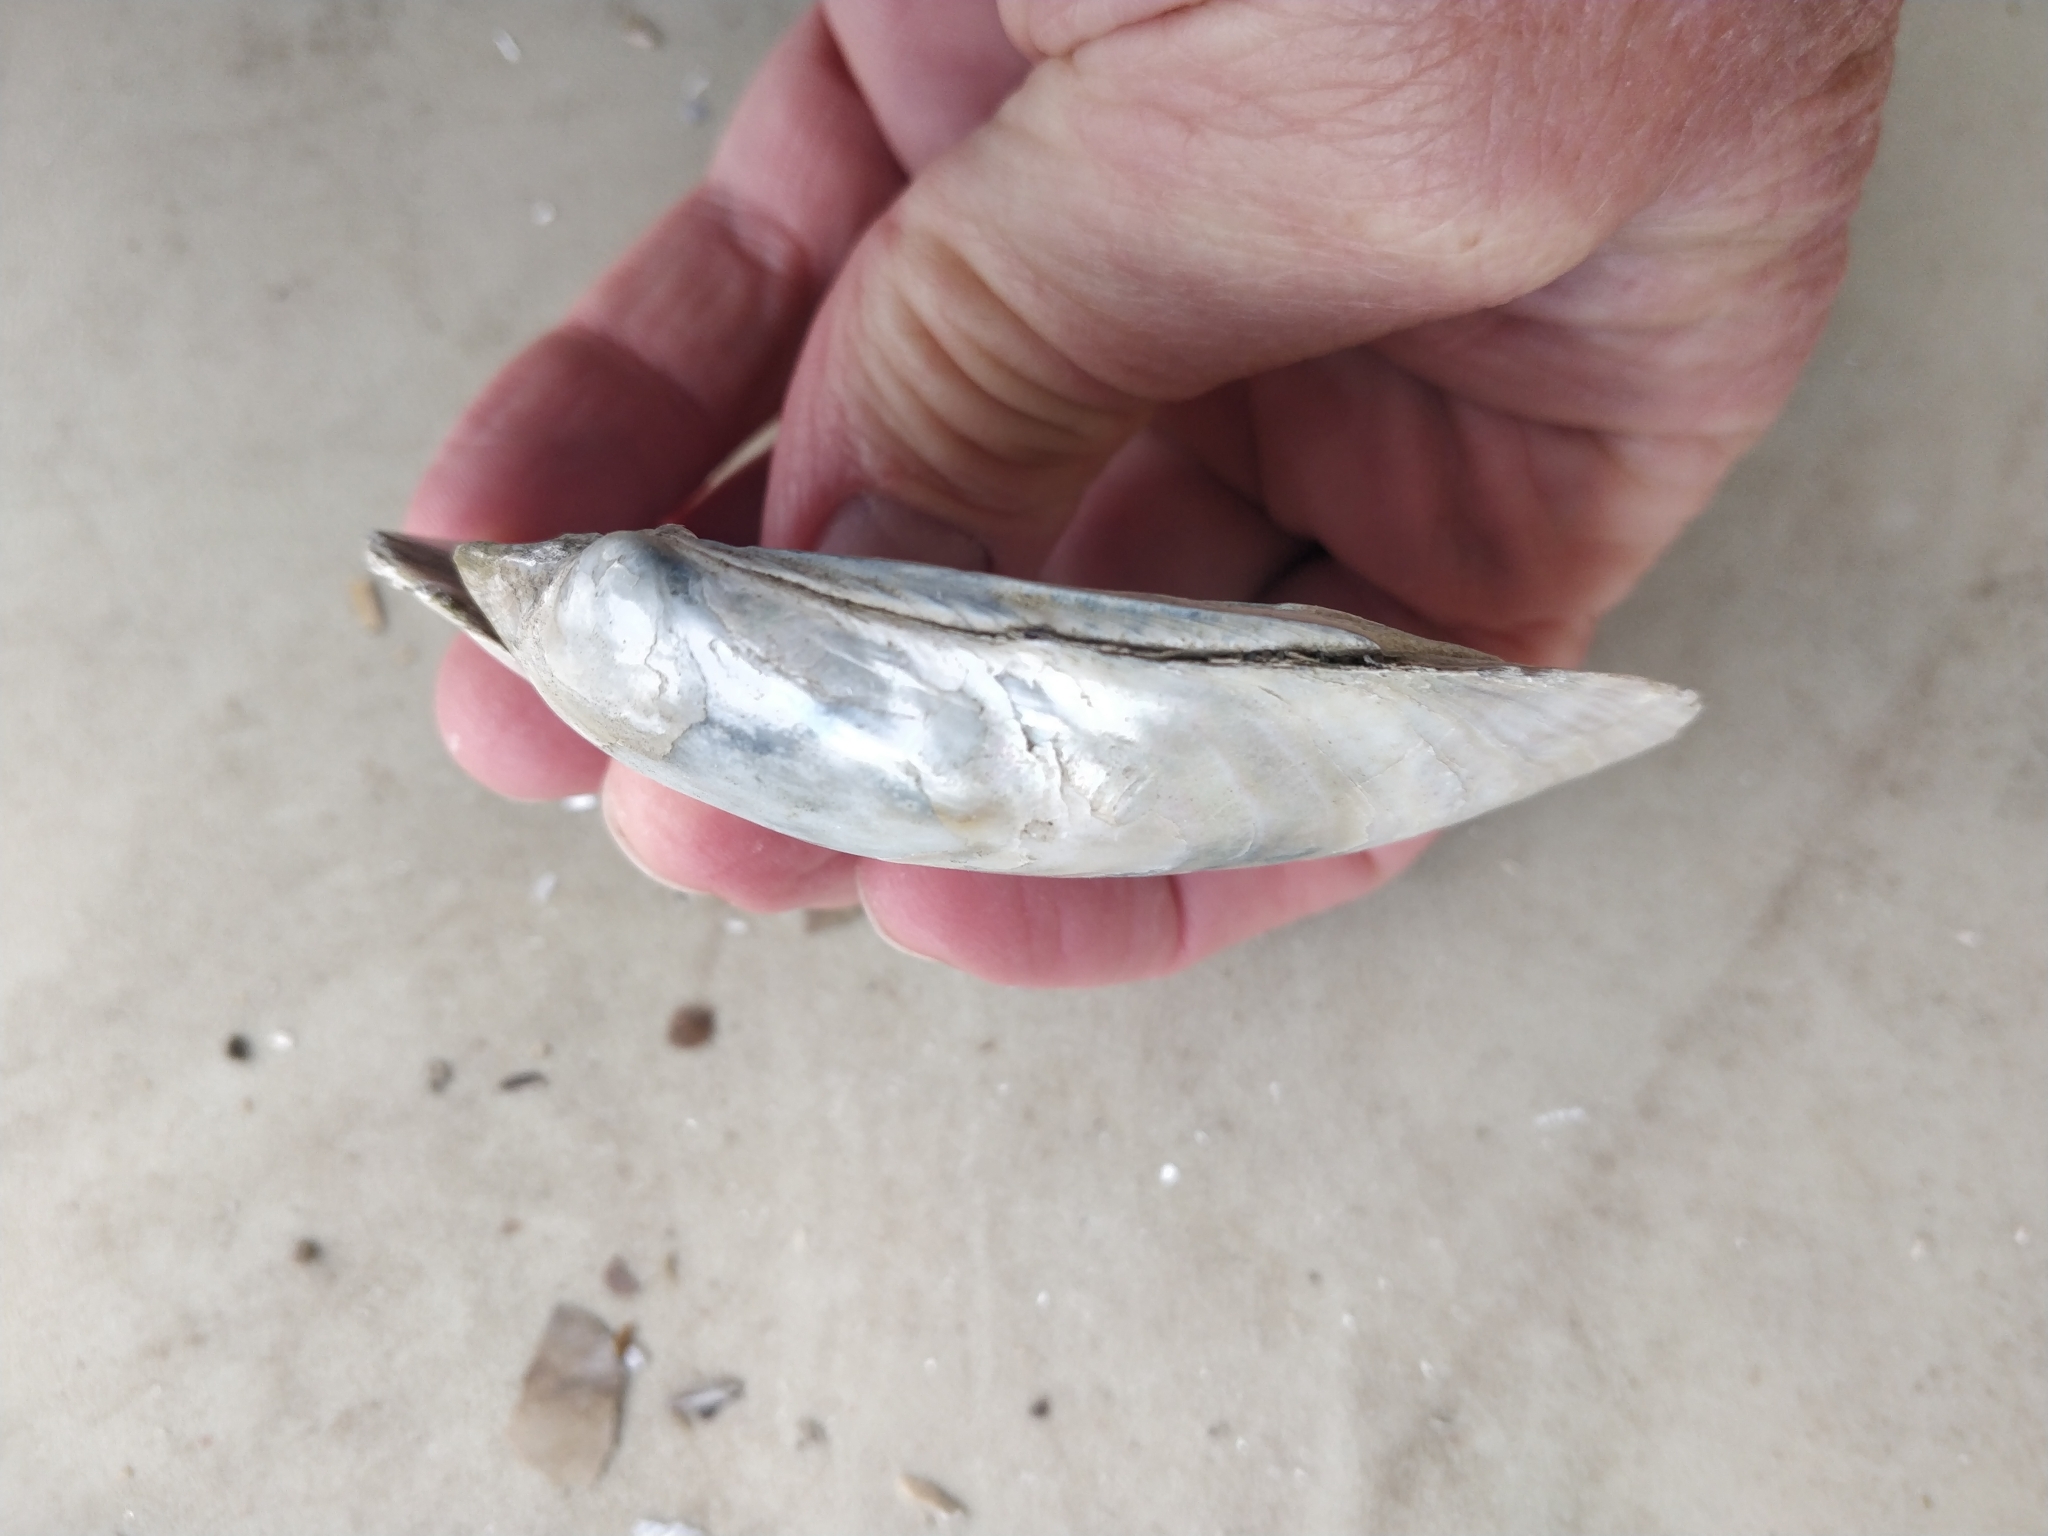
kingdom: Animalia
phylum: Mollusca
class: Bivalvia
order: Unionida
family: Unionidae
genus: Lampsilis
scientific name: Lampsilis cardium
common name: Plain pocketbook
